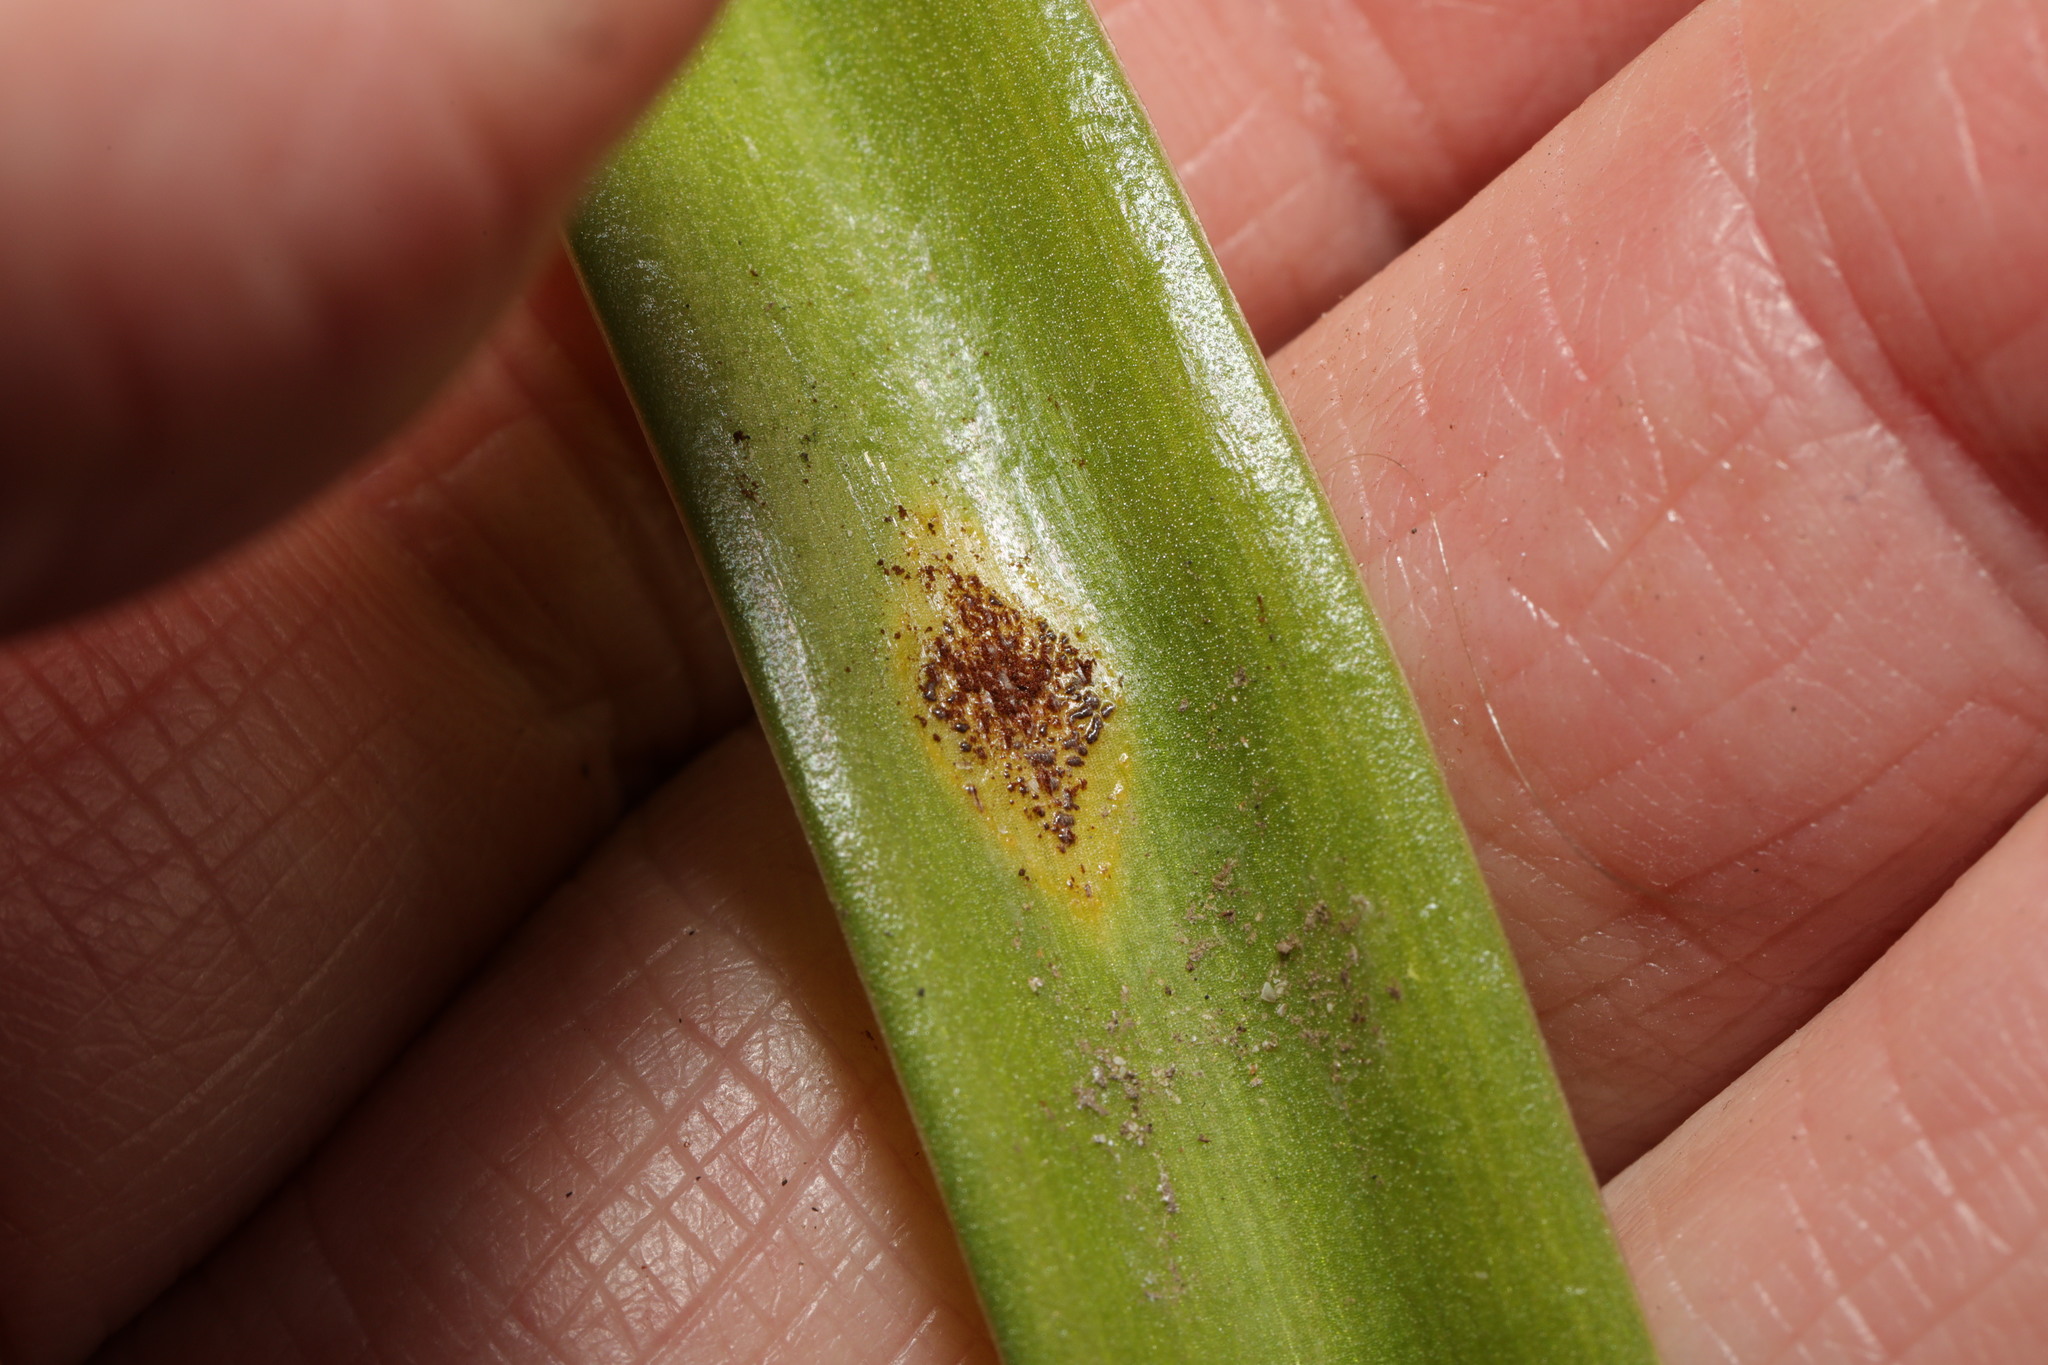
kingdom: Fungi
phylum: Basidiomycota
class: Pucciniomycetes
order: Pucciniales
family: Pucciniaceae
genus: Uromyces
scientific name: Uromyces hyacinthi
